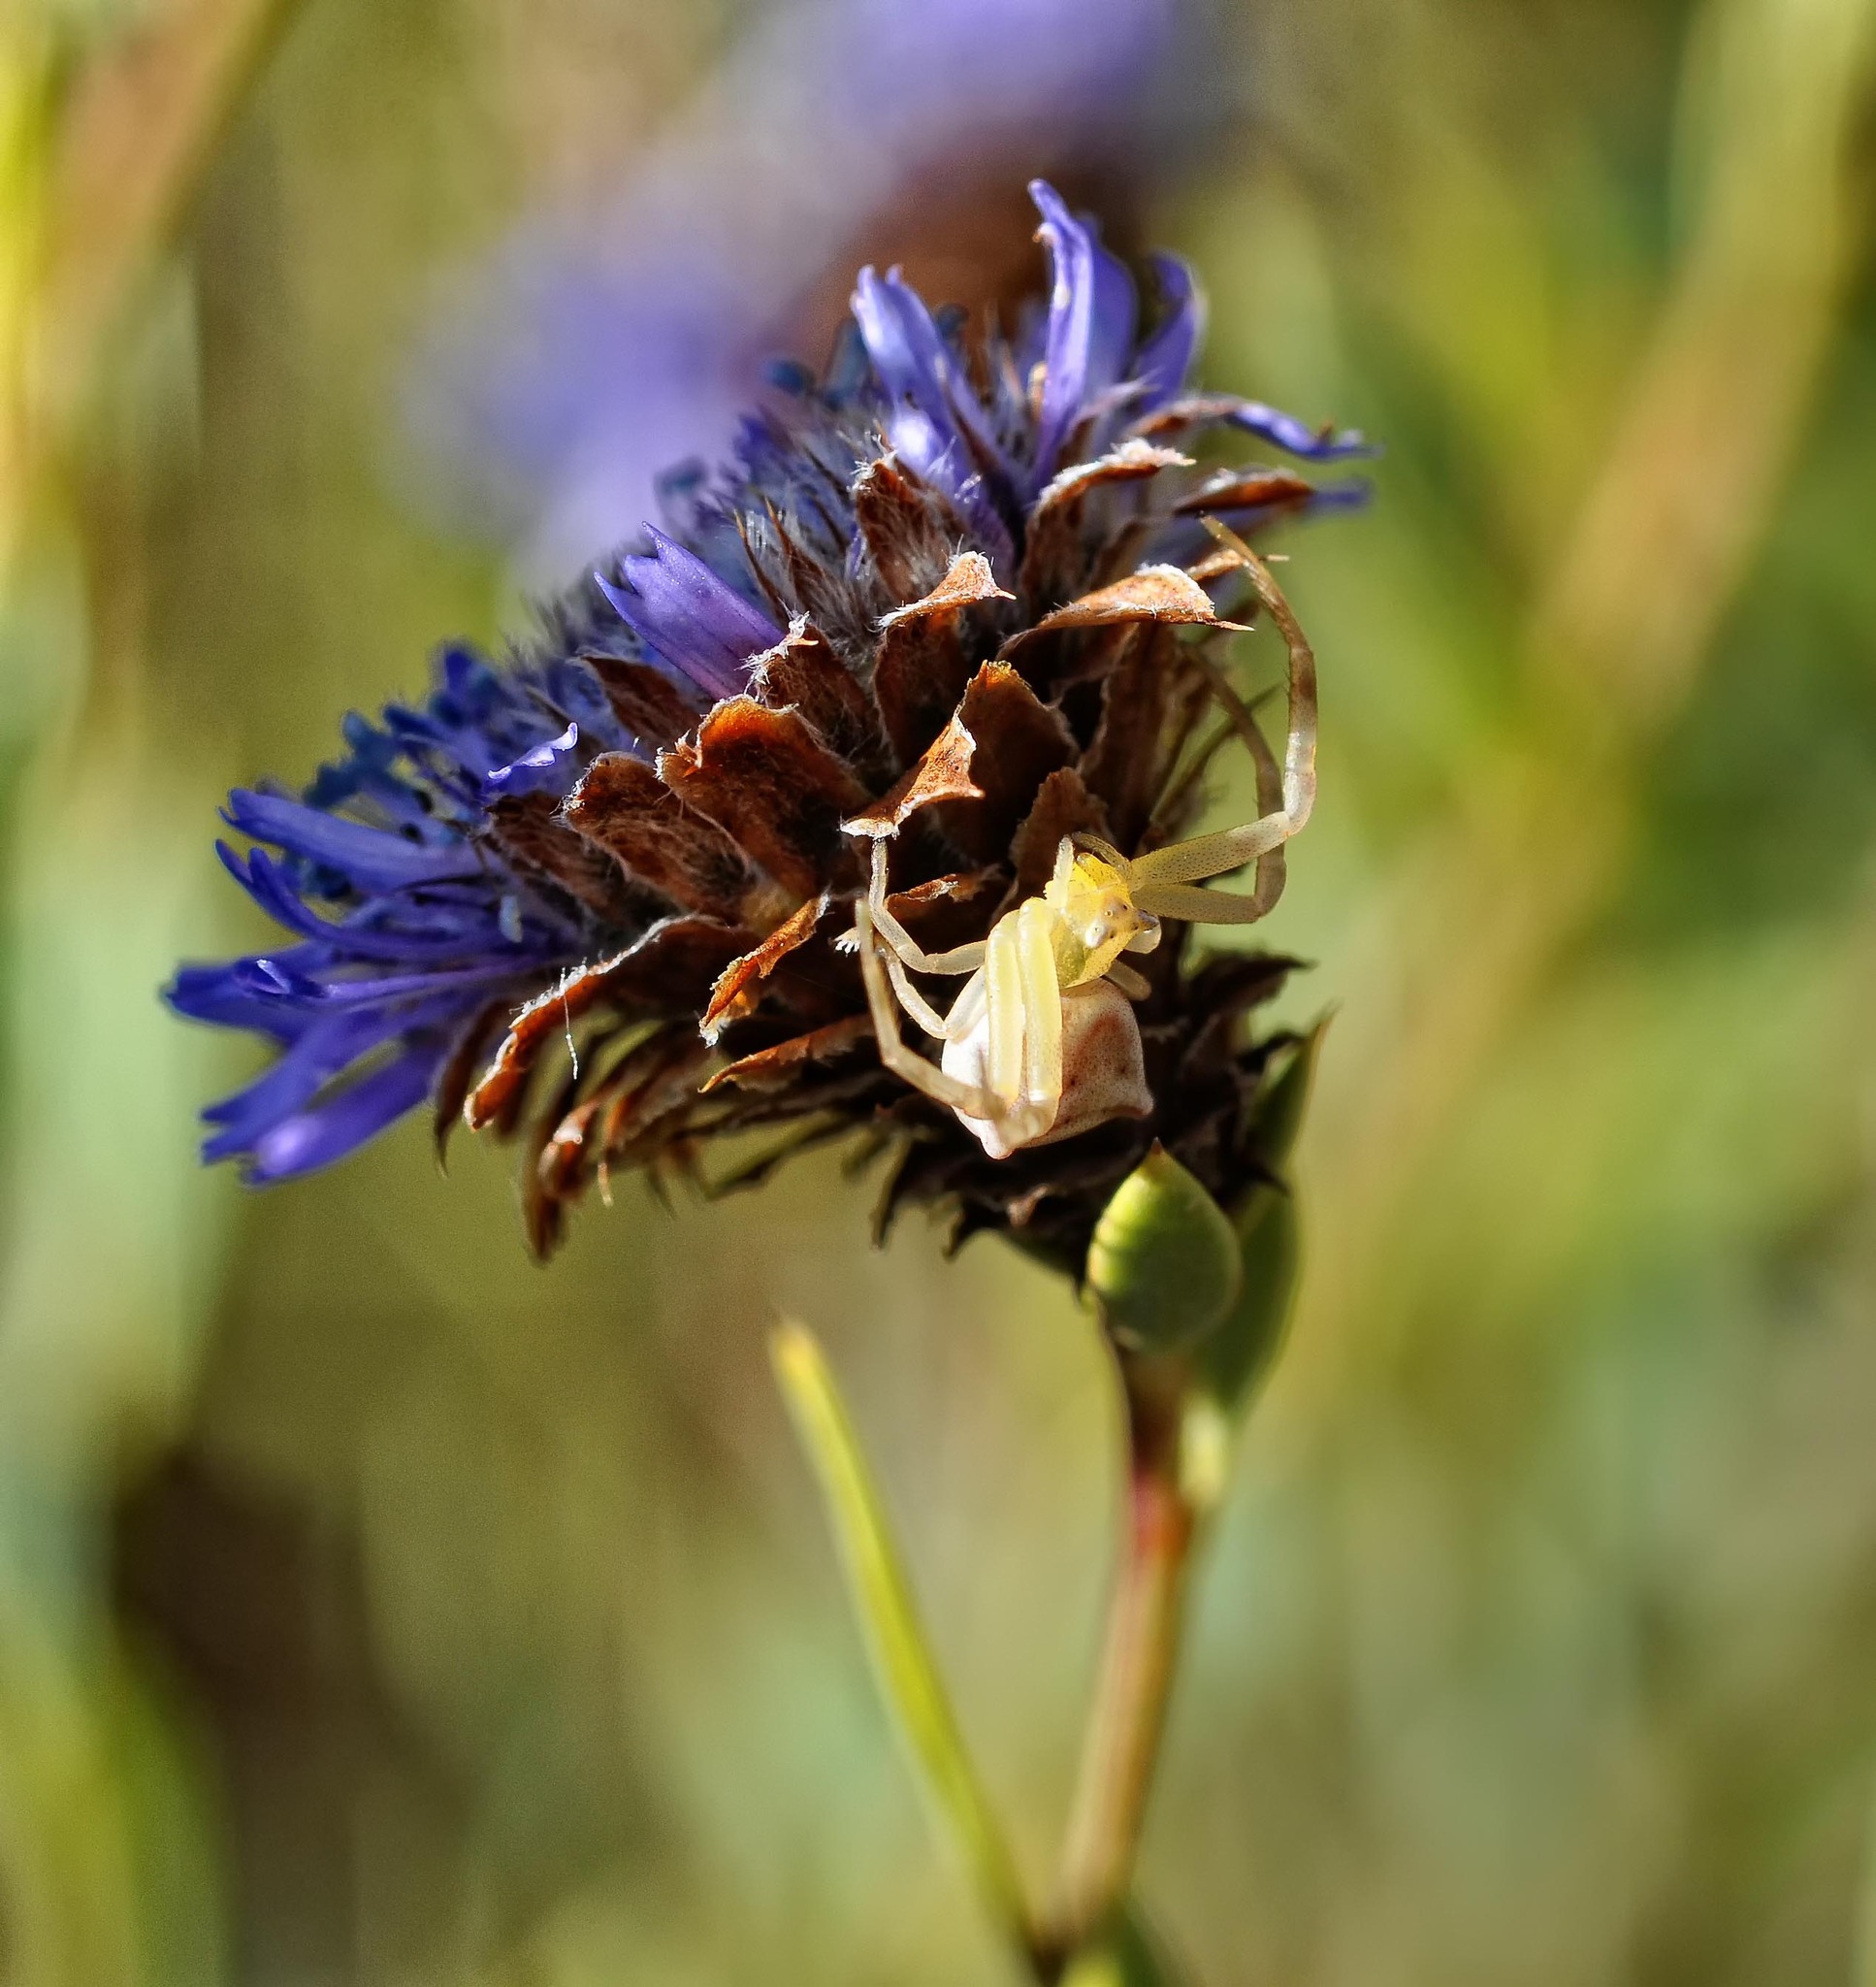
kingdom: Animalia
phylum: Arthropoda
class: Arachnida
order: Araneae
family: Thomisidae
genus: Thomisus
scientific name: Thomisus onustus
